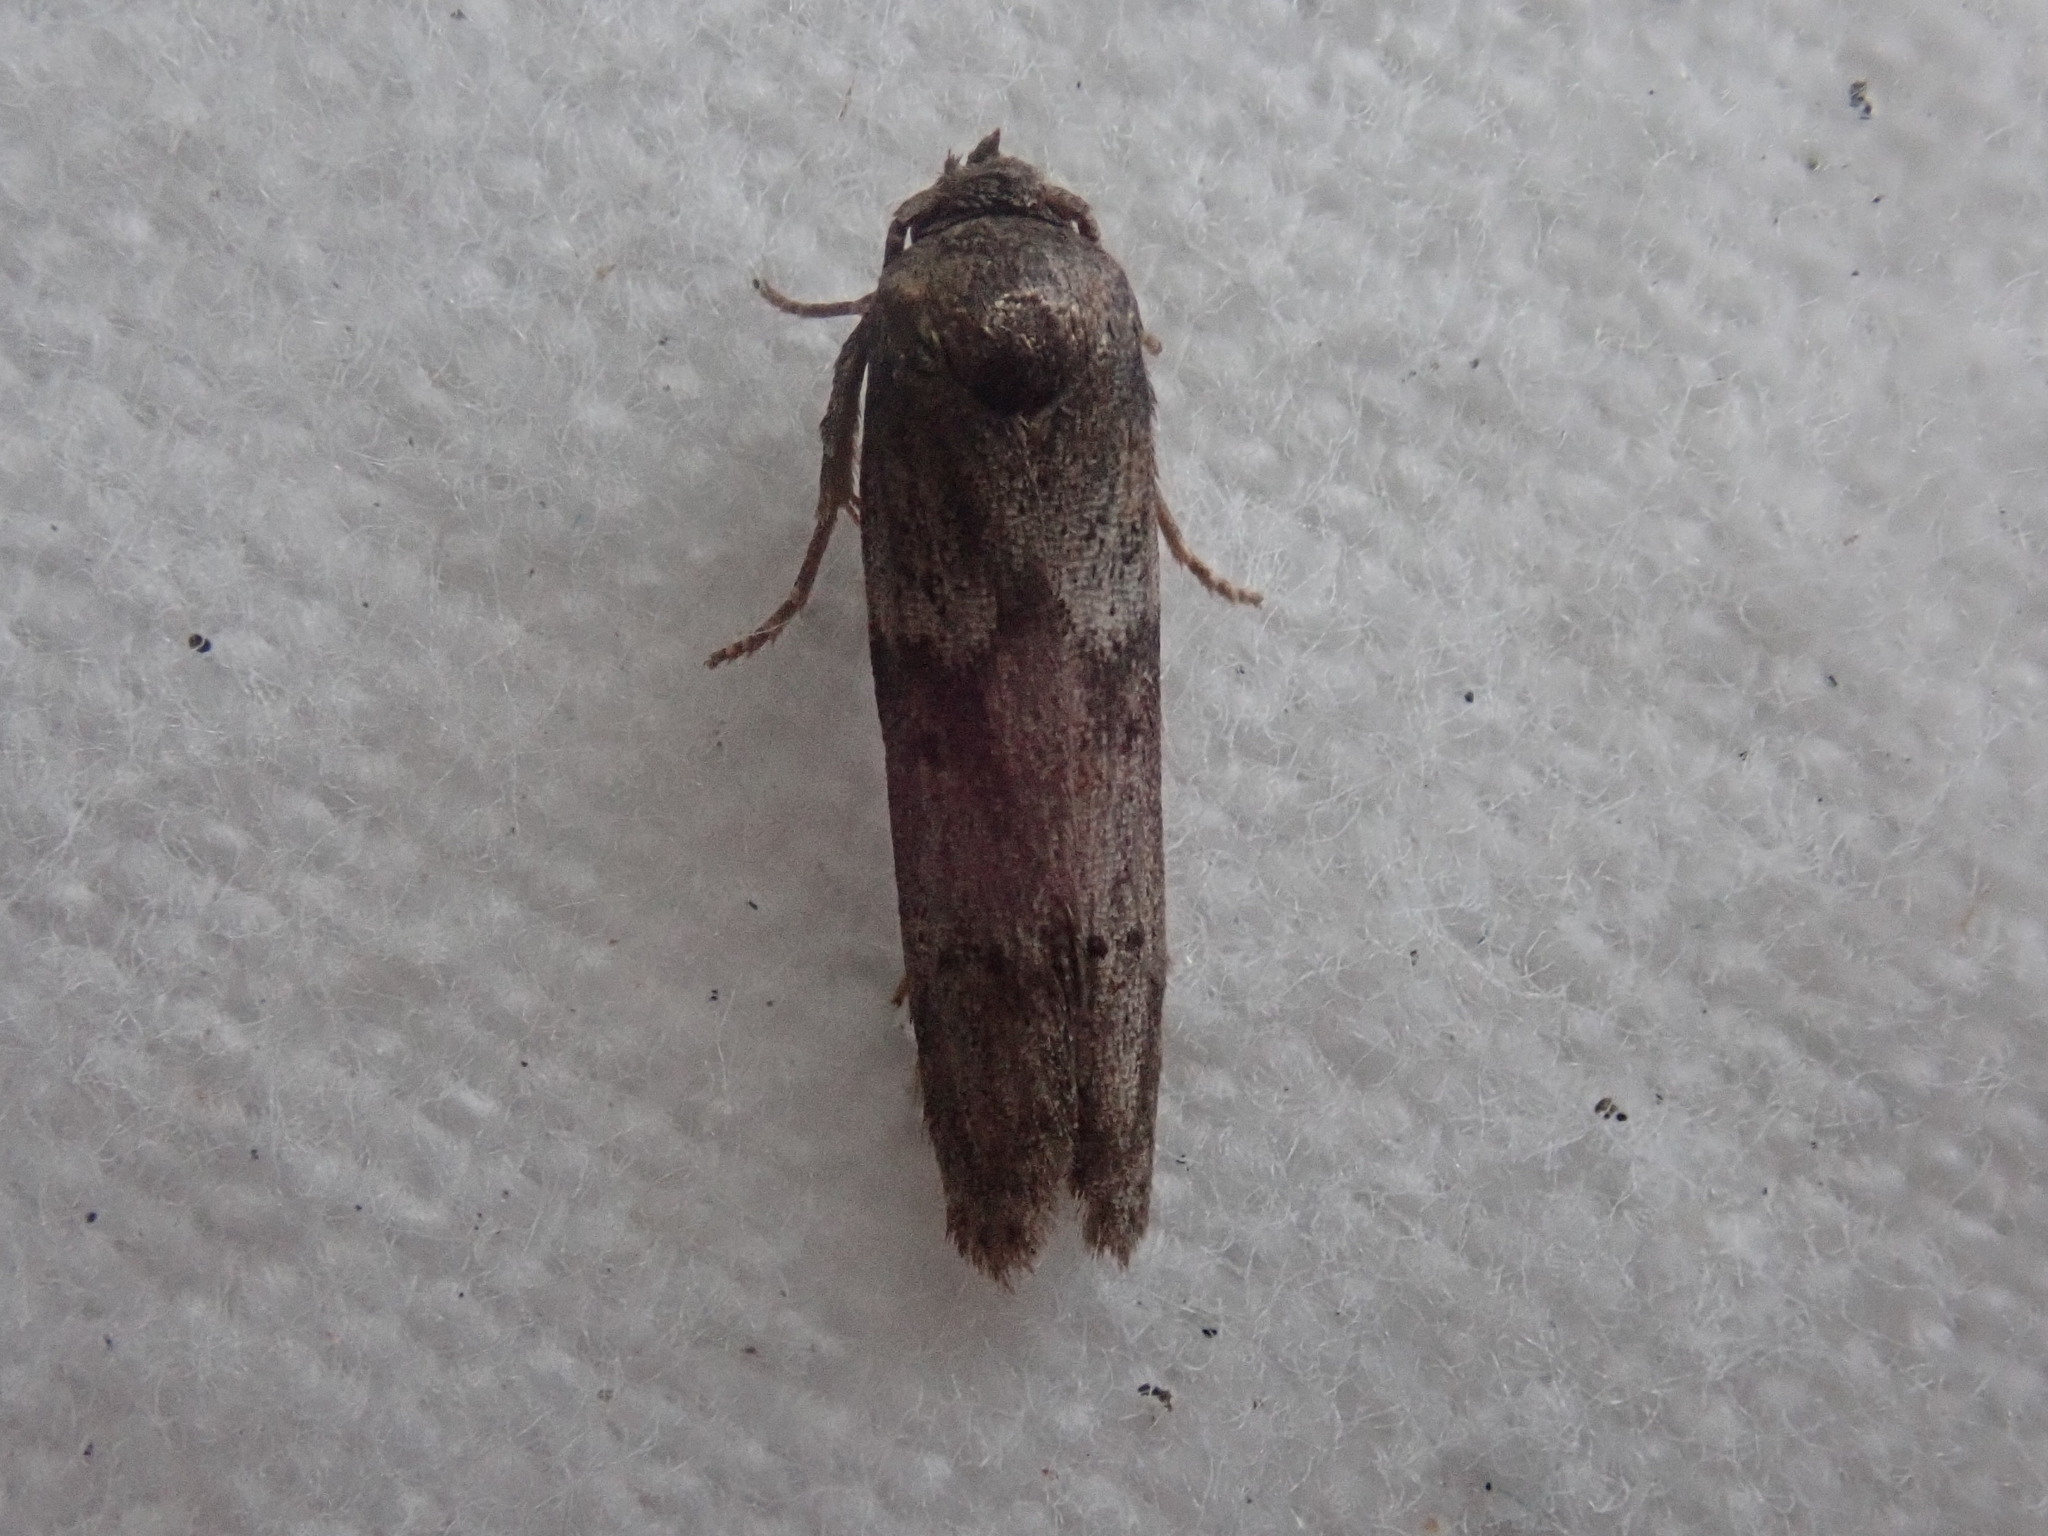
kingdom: Animalia
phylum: Arthropoda
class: Insecta
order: Lepidoptera
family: Blastobasidae
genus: Blastobasis
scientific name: Blastobasis glandulella
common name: Acorn moth
